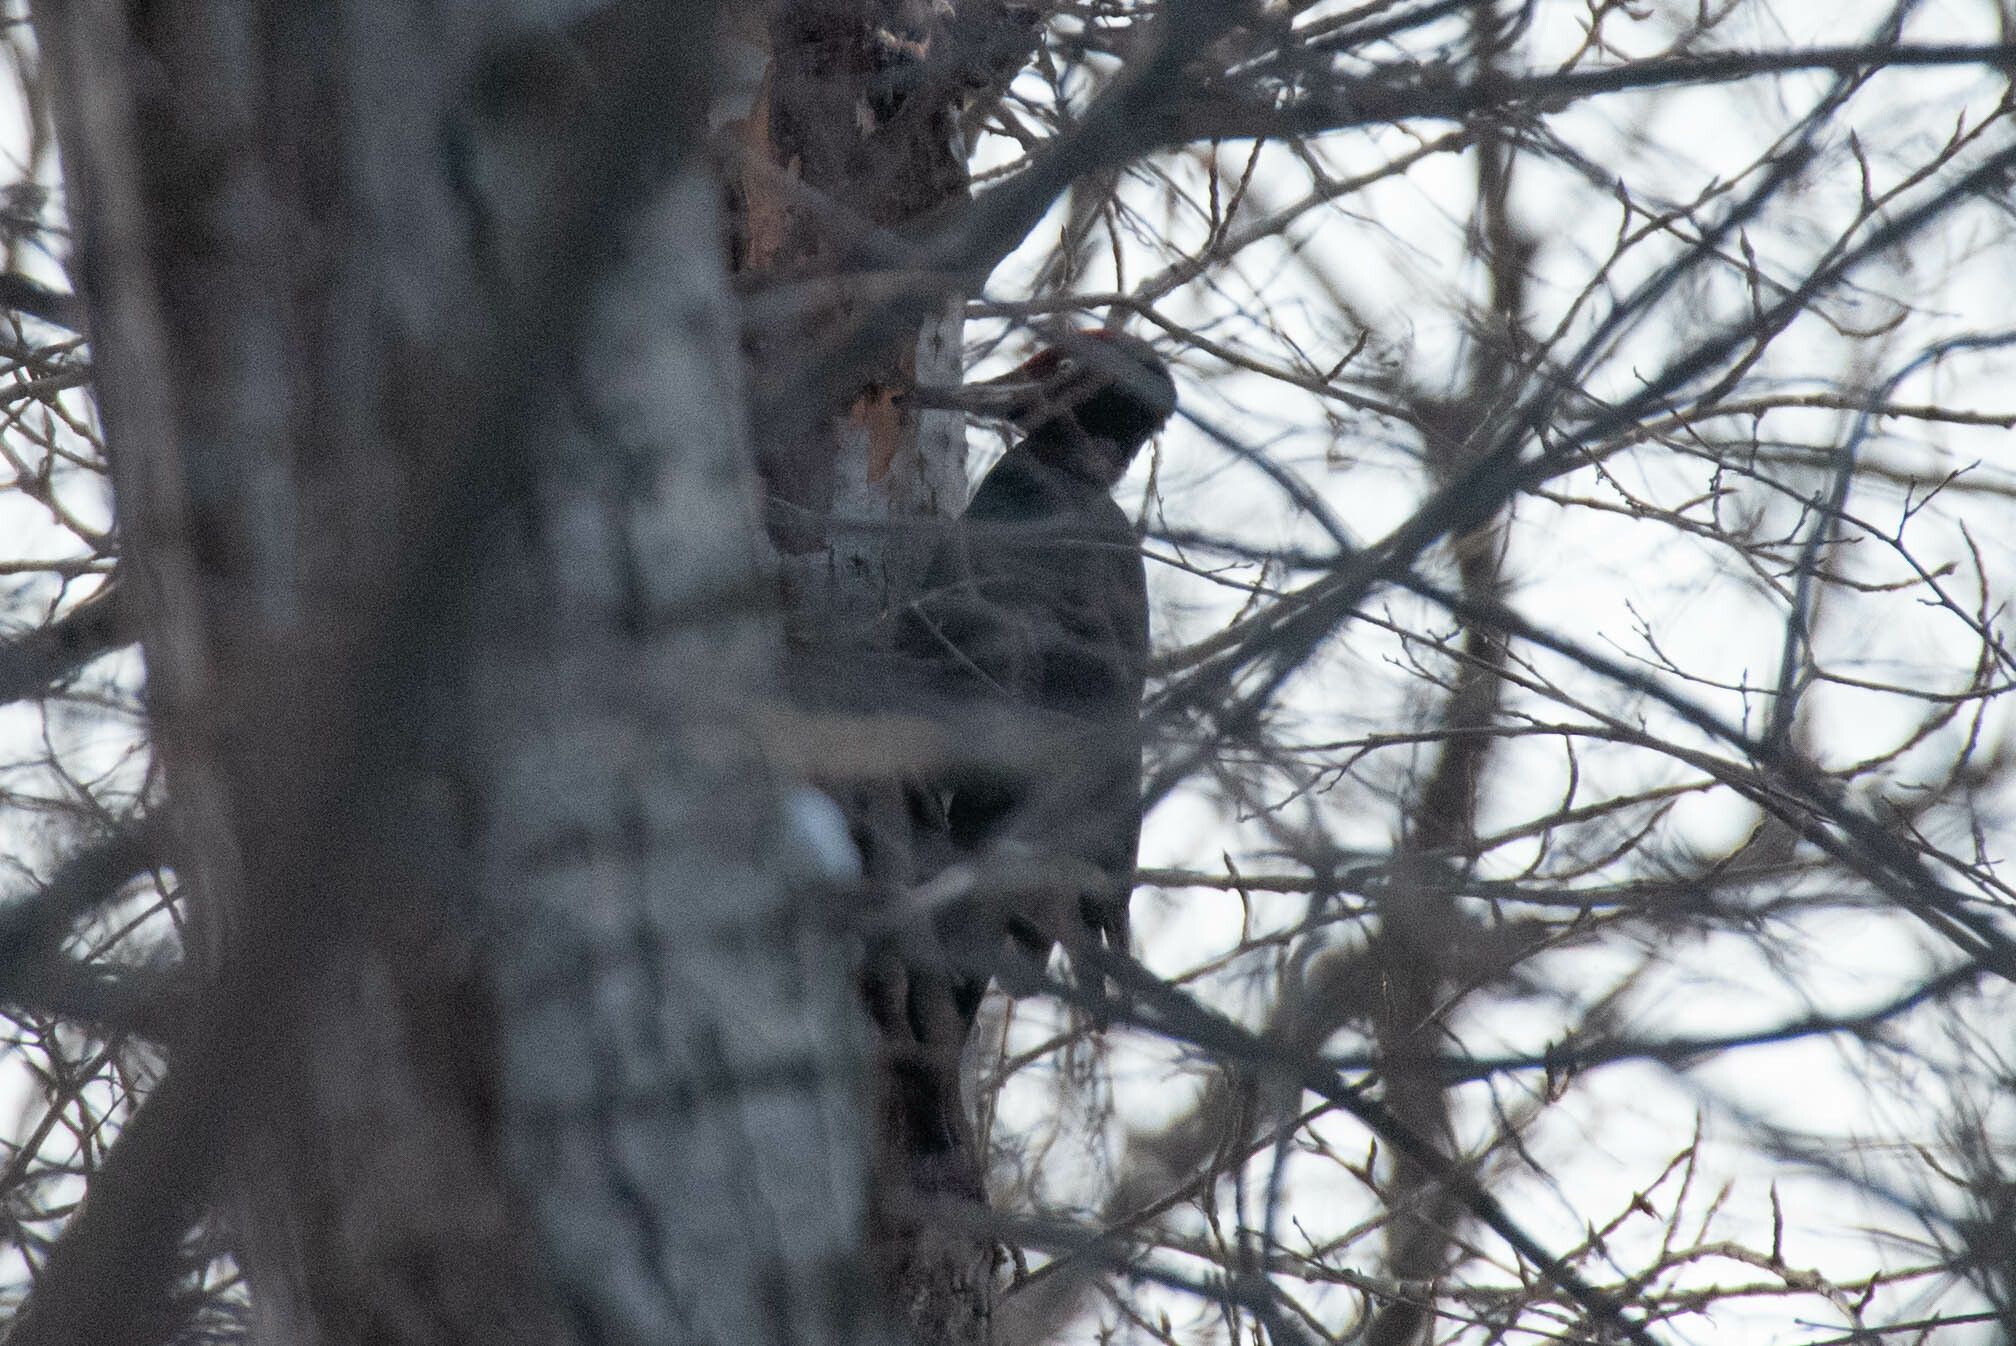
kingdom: Animalia
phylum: Chordata
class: Aves
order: Piciformes
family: Picidae
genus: Dryocopus
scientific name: Dryocopus martius
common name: Black woodpecker
